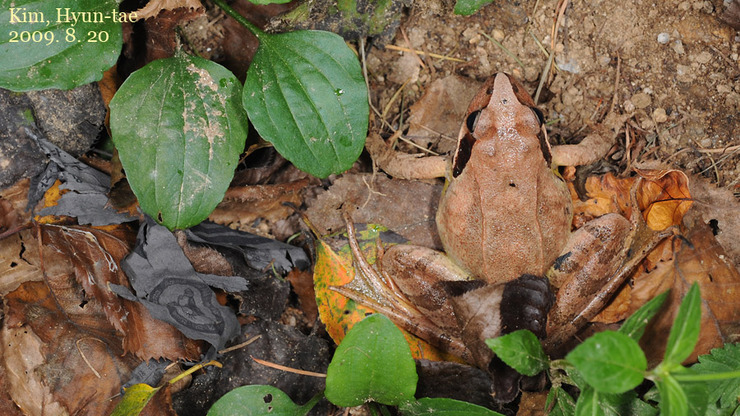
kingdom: Animalia
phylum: Chordata
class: Amphibia
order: Anura
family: Ranidae
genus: Rana
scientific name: Rana uenoi
